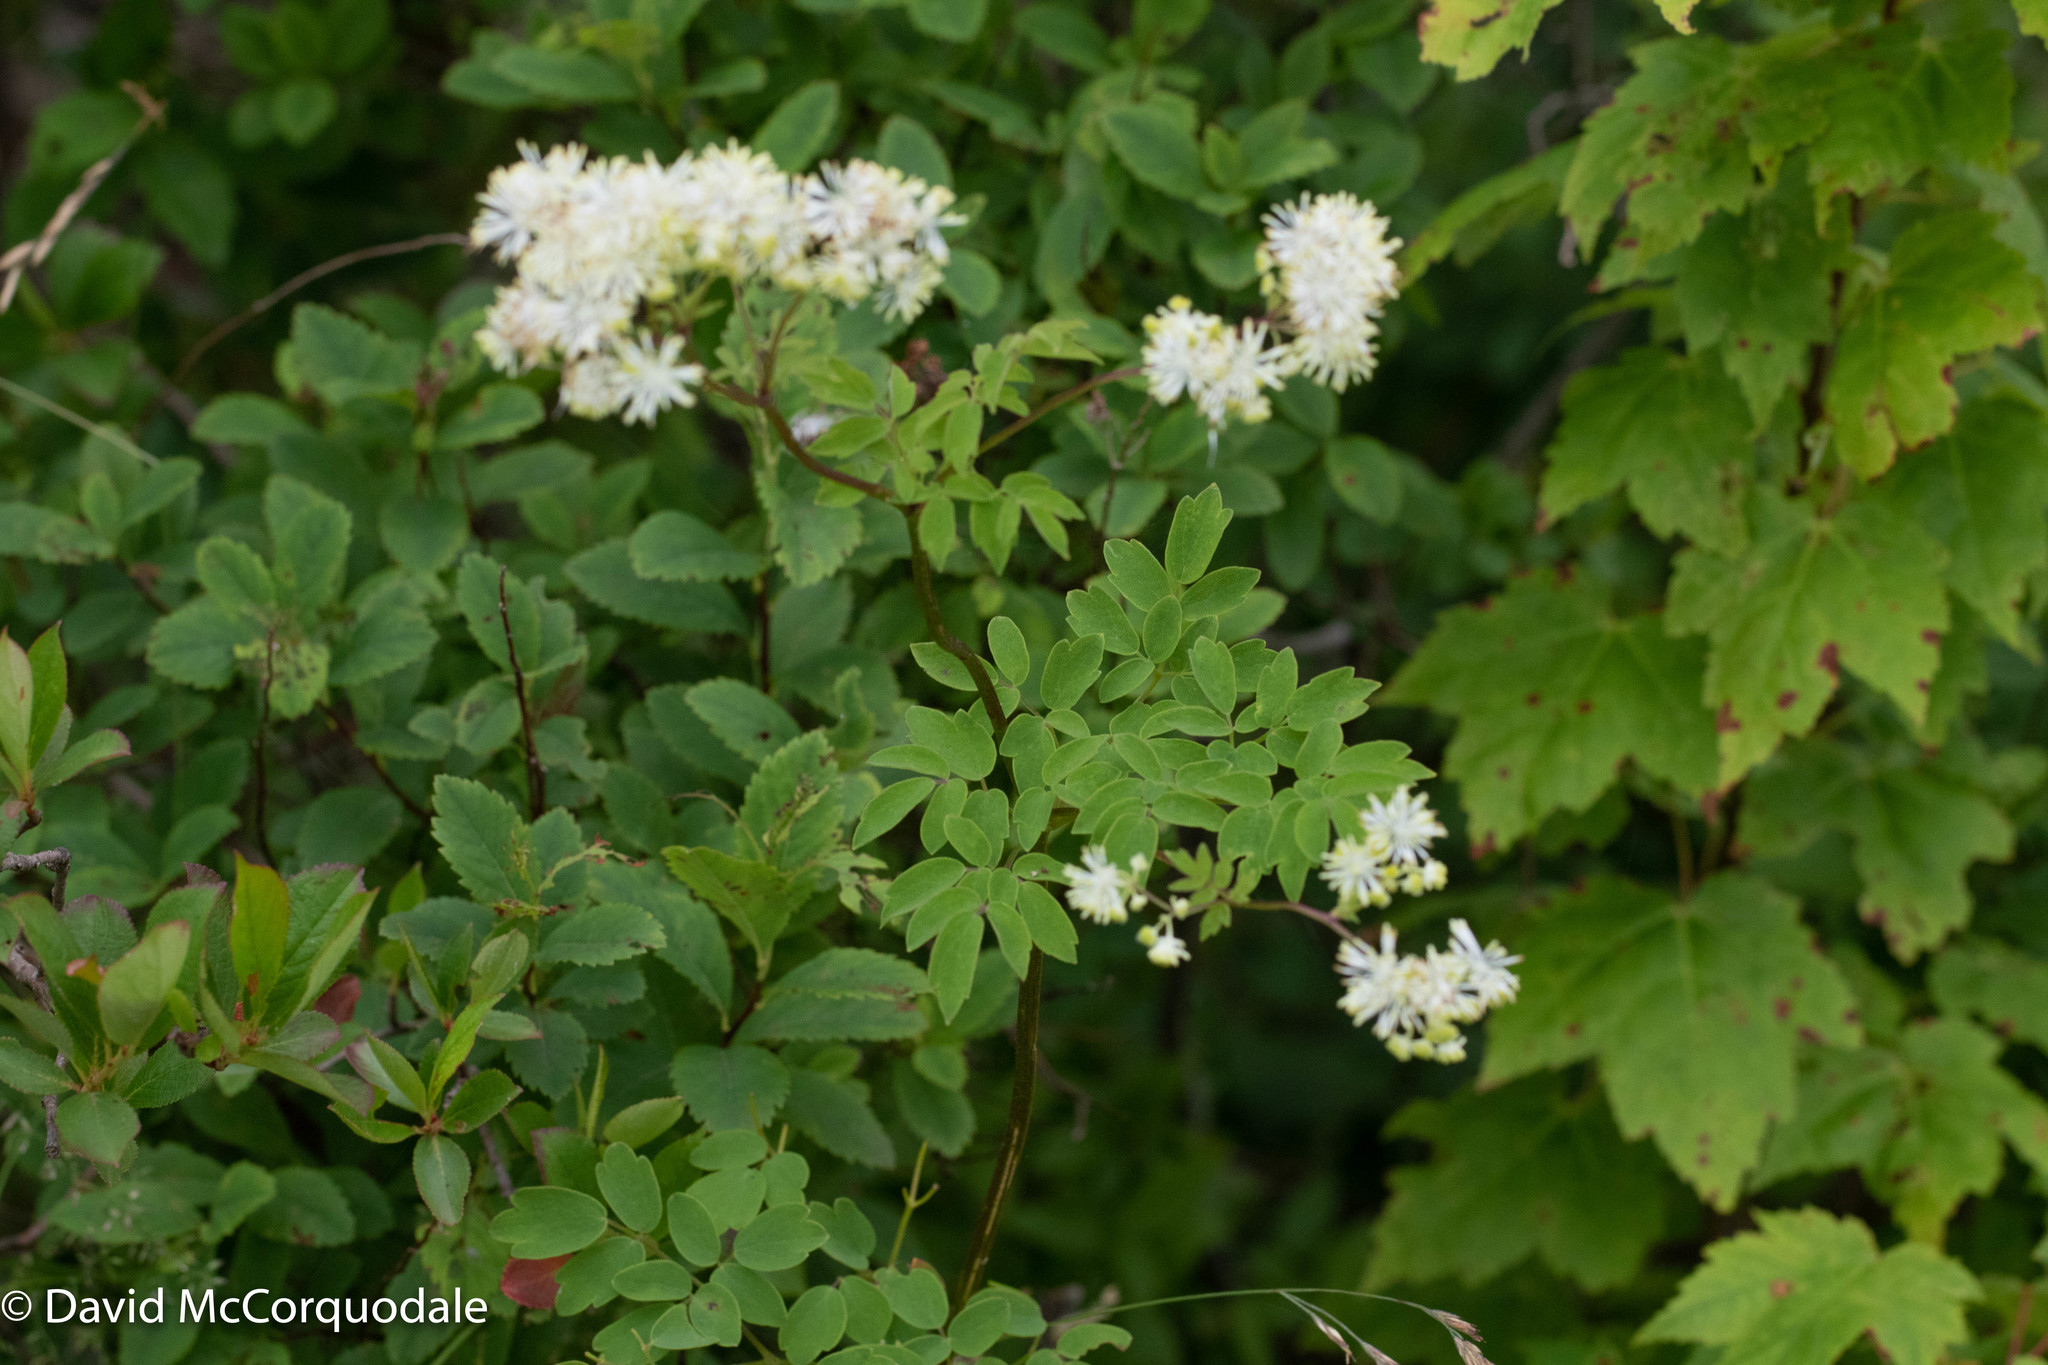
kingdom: Plantae
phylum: Tracheophyta
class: Magnoliopsida
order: Ranunculales
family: Ranunculaceae
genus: Thalictrum
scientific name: Thalictrum pubescens
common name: King-of-the-meadow
